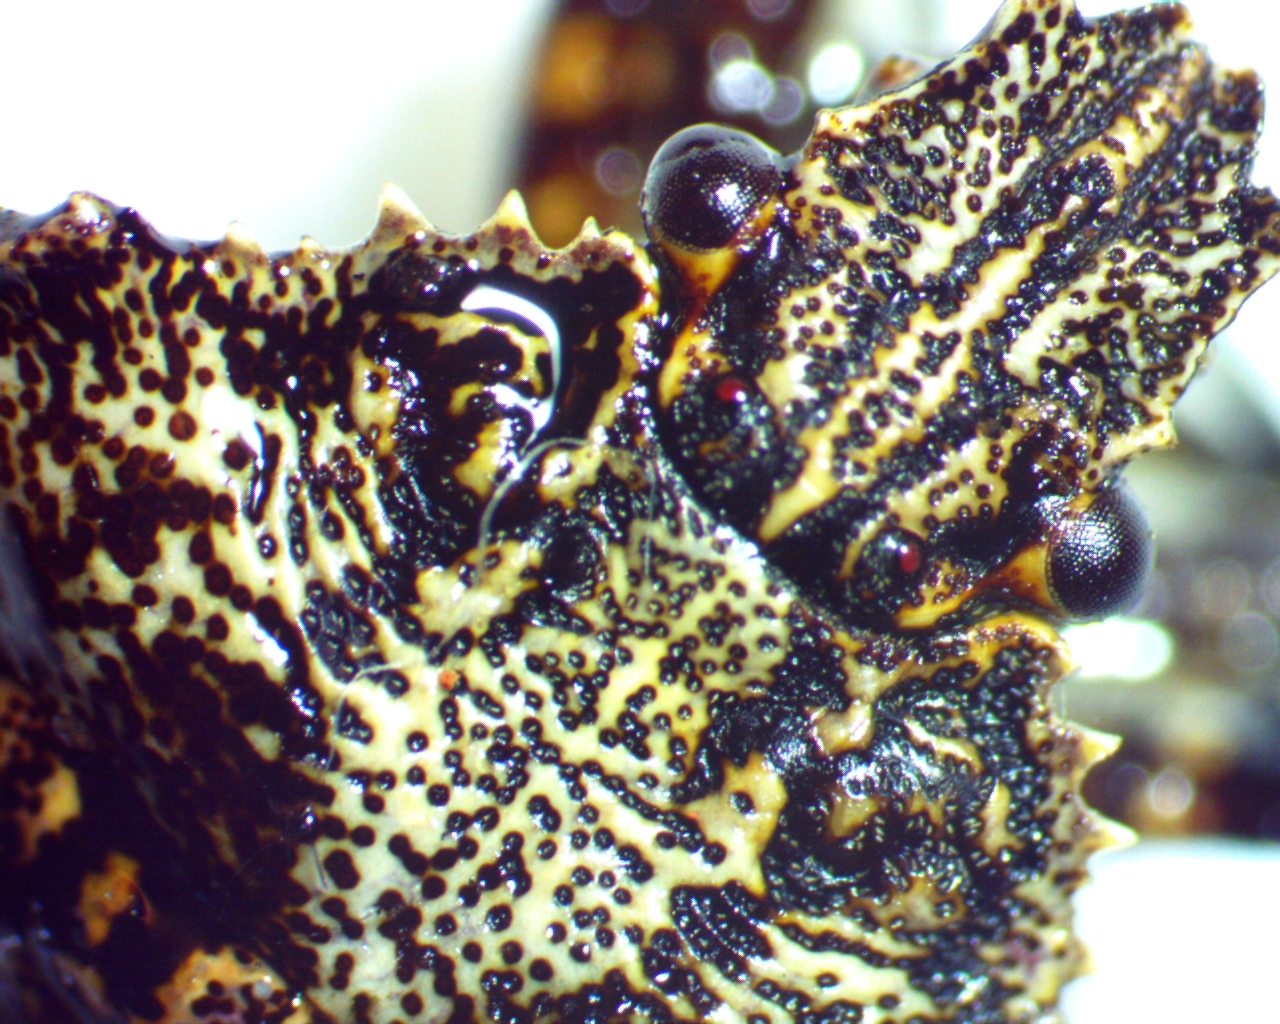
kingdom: Animalia
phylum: Arthropoda
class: Insecta
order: Hemiptera
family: Pentatomidae
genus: Brochymena
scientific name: Brochymena arborea
